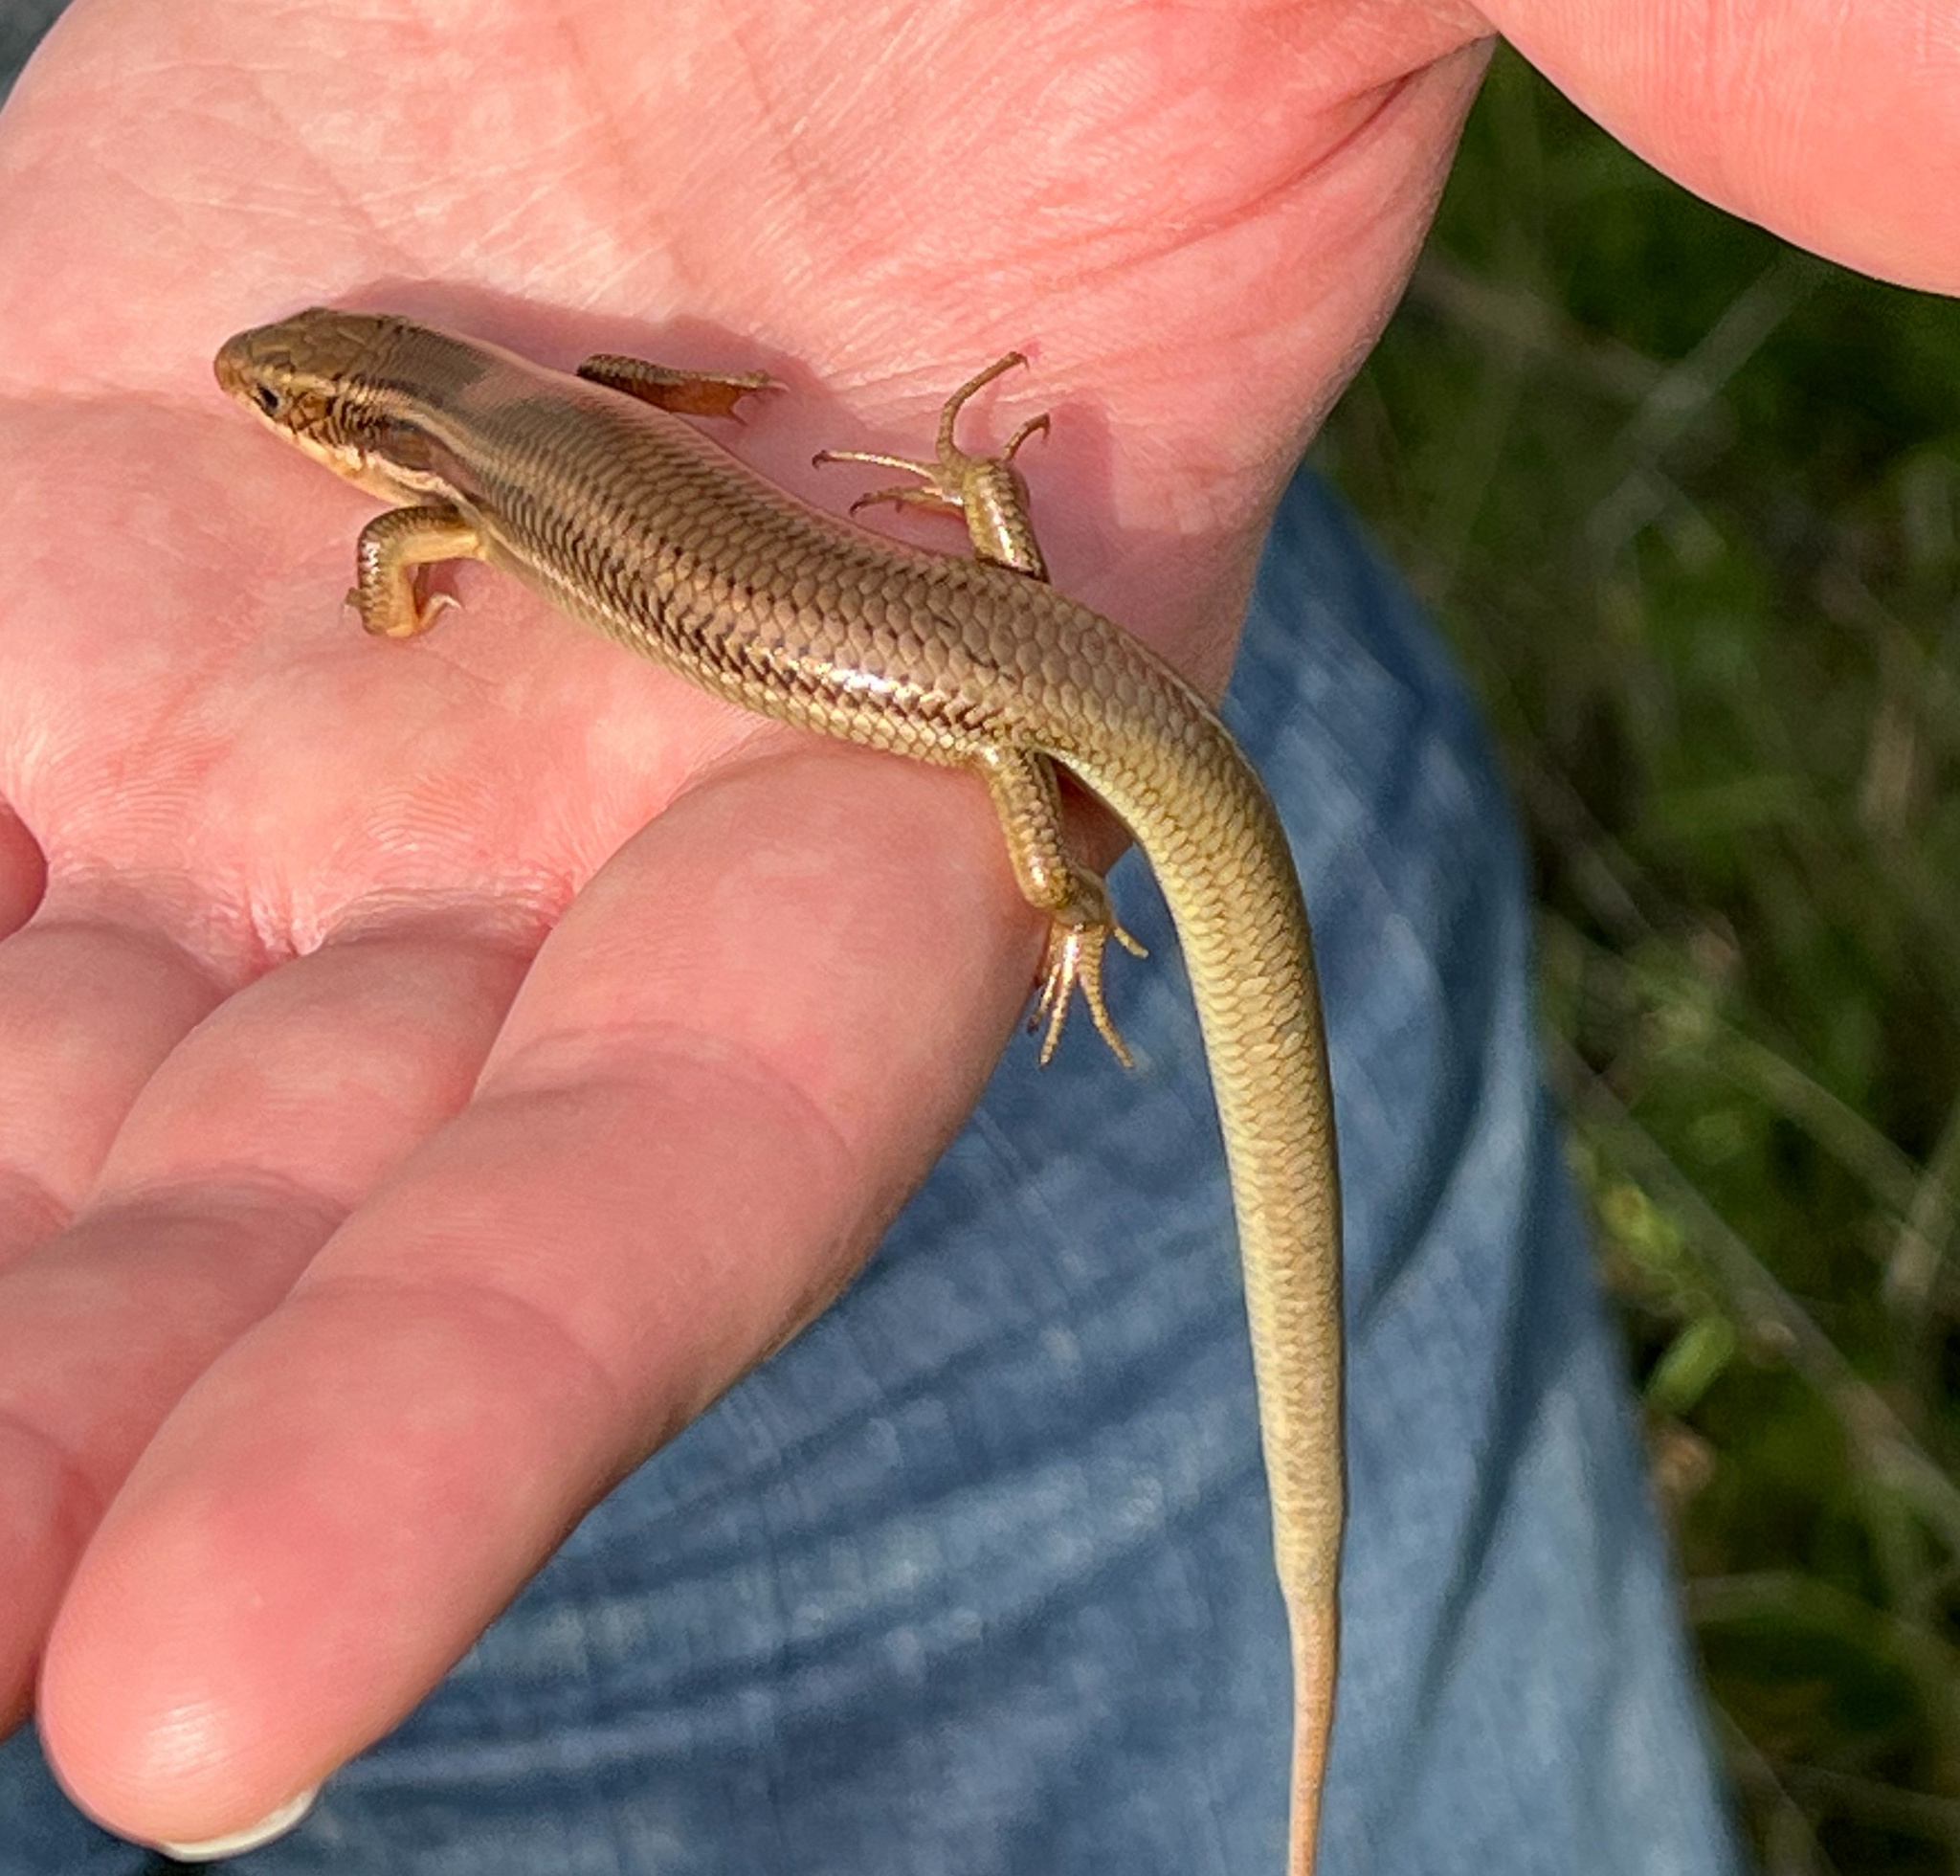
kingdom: Animalia
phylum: Chordata
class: Squamata
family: Scincidae
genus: Plestiodon
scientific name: Plestiodon gilberti
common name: Gilbert's skink
